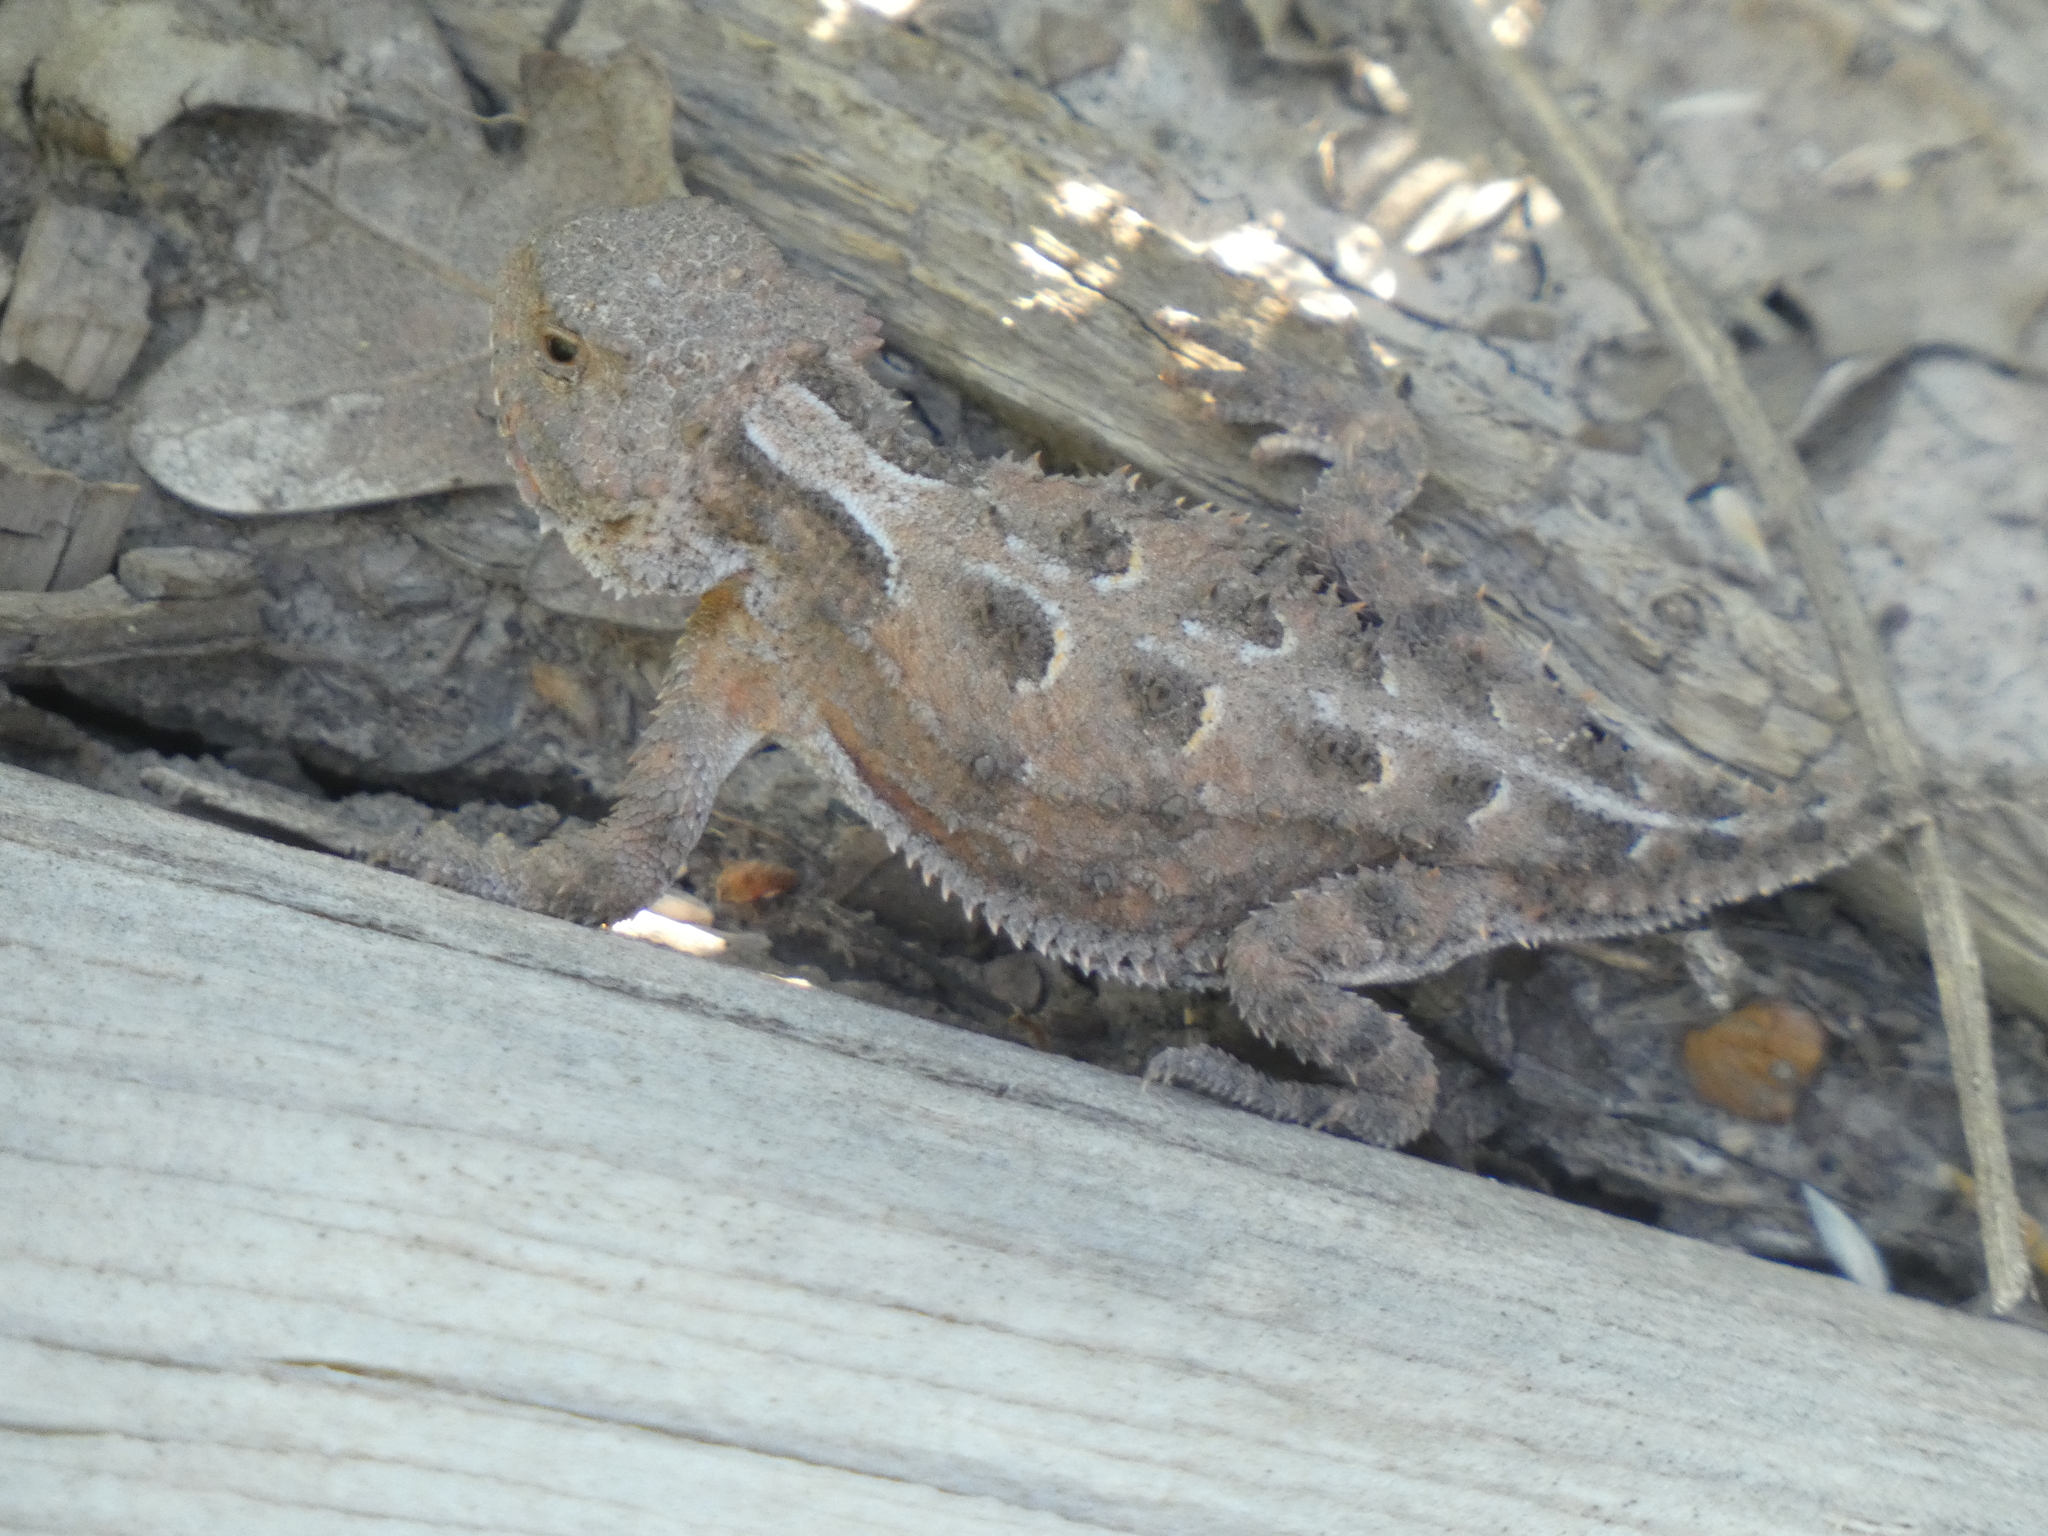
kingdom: Animalia
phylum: Chordata
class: Squamata
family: Phrynosomatidae
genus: Phrynosoma
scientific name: Phrynosoma hernandesi
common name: Greater short-horned lizard
